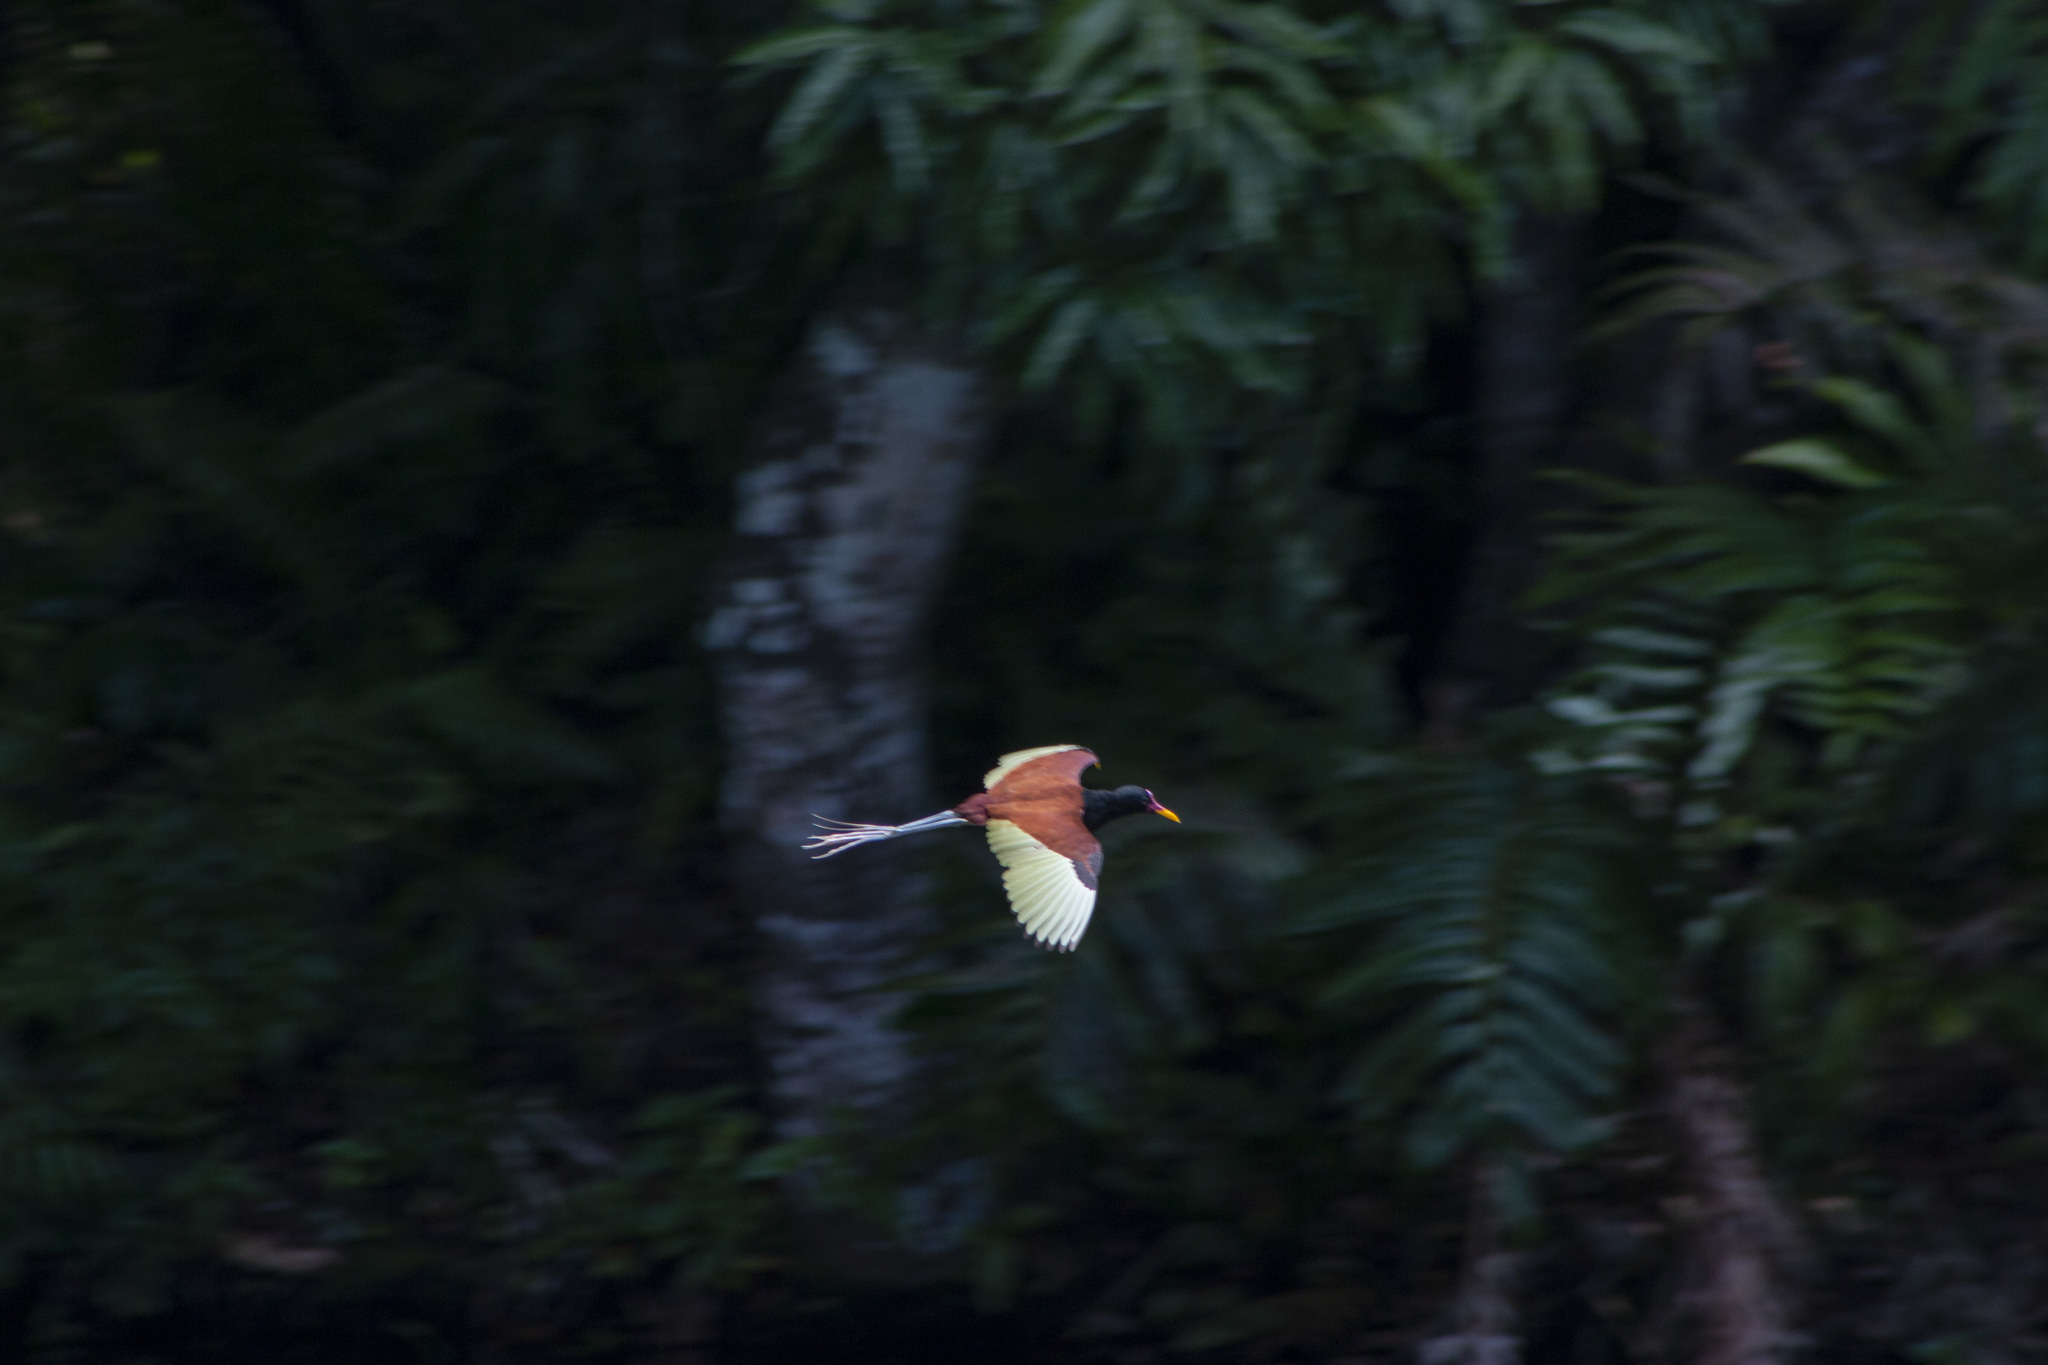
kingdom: Animalia
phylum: Chordata
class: Aves
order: Charadriiformes
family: Jacanidae
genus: Jacana
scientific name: Jacana jacana
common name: Wattled jacana
